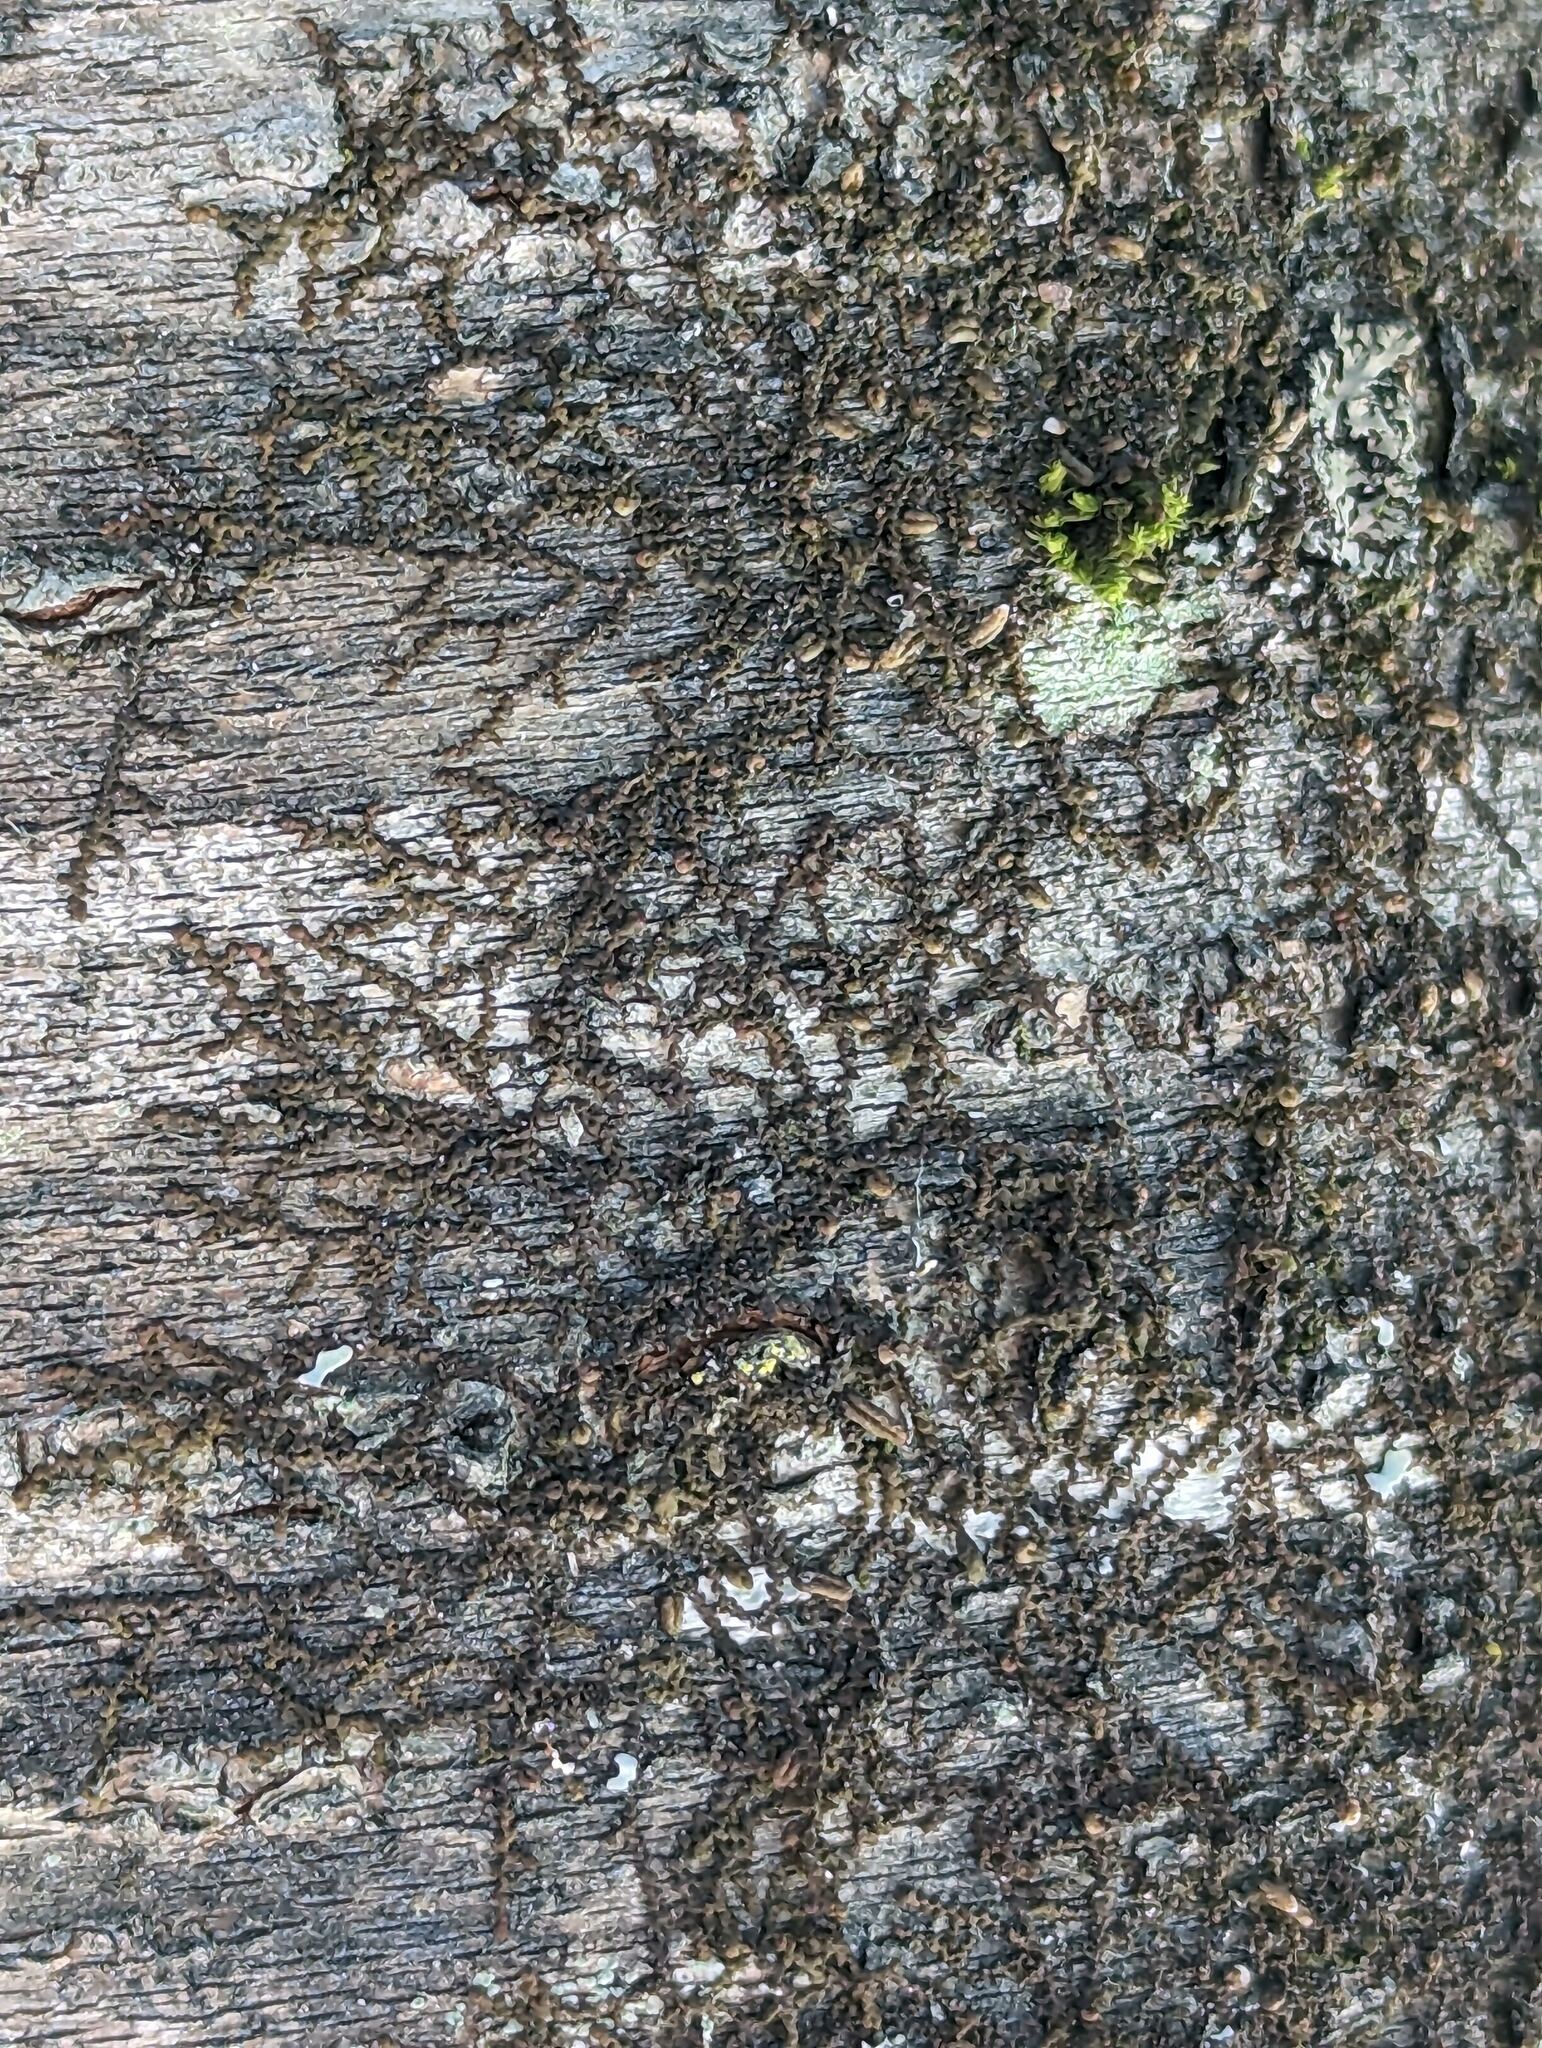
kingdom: Plantae
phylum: Marchantiophyta
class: Jungermanniopsida
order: Porellales
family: Frullaniaceae
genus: Frullania
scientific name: Frullania eboracensis
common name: New york scalewort
